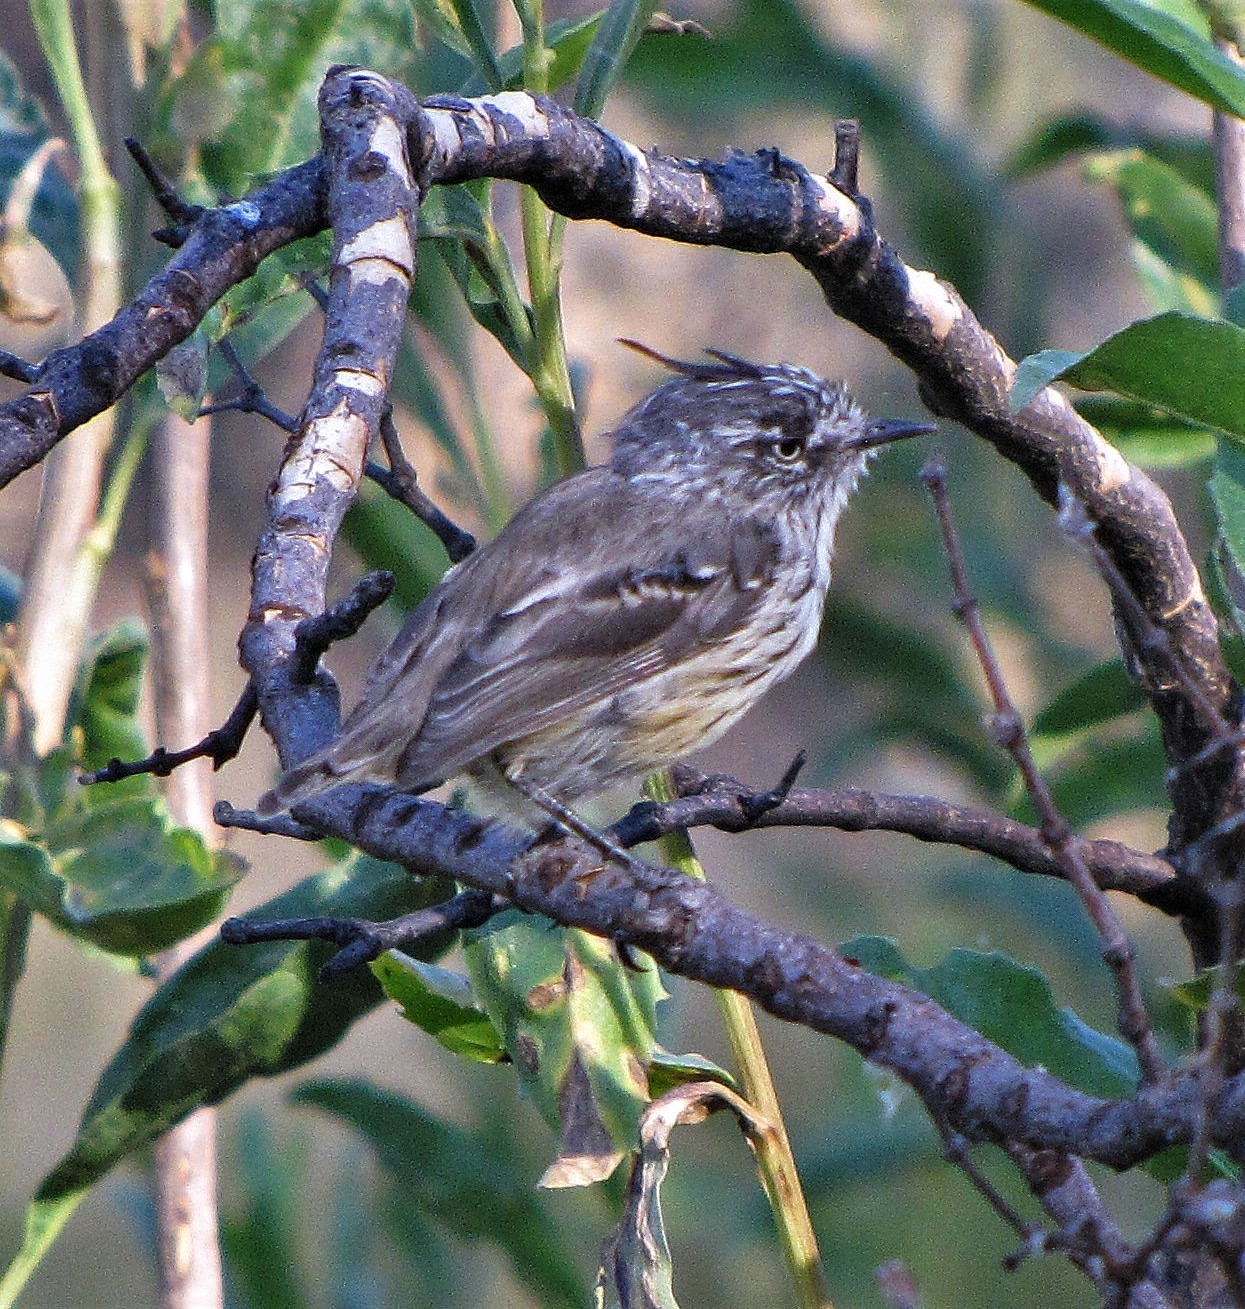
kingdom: Animalia
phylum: Chordata
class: Aves
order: Passeriformes
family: Tyrannidae
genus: Anairetes
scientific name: Anairetes parulus
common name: Tufted tit-tyrant
